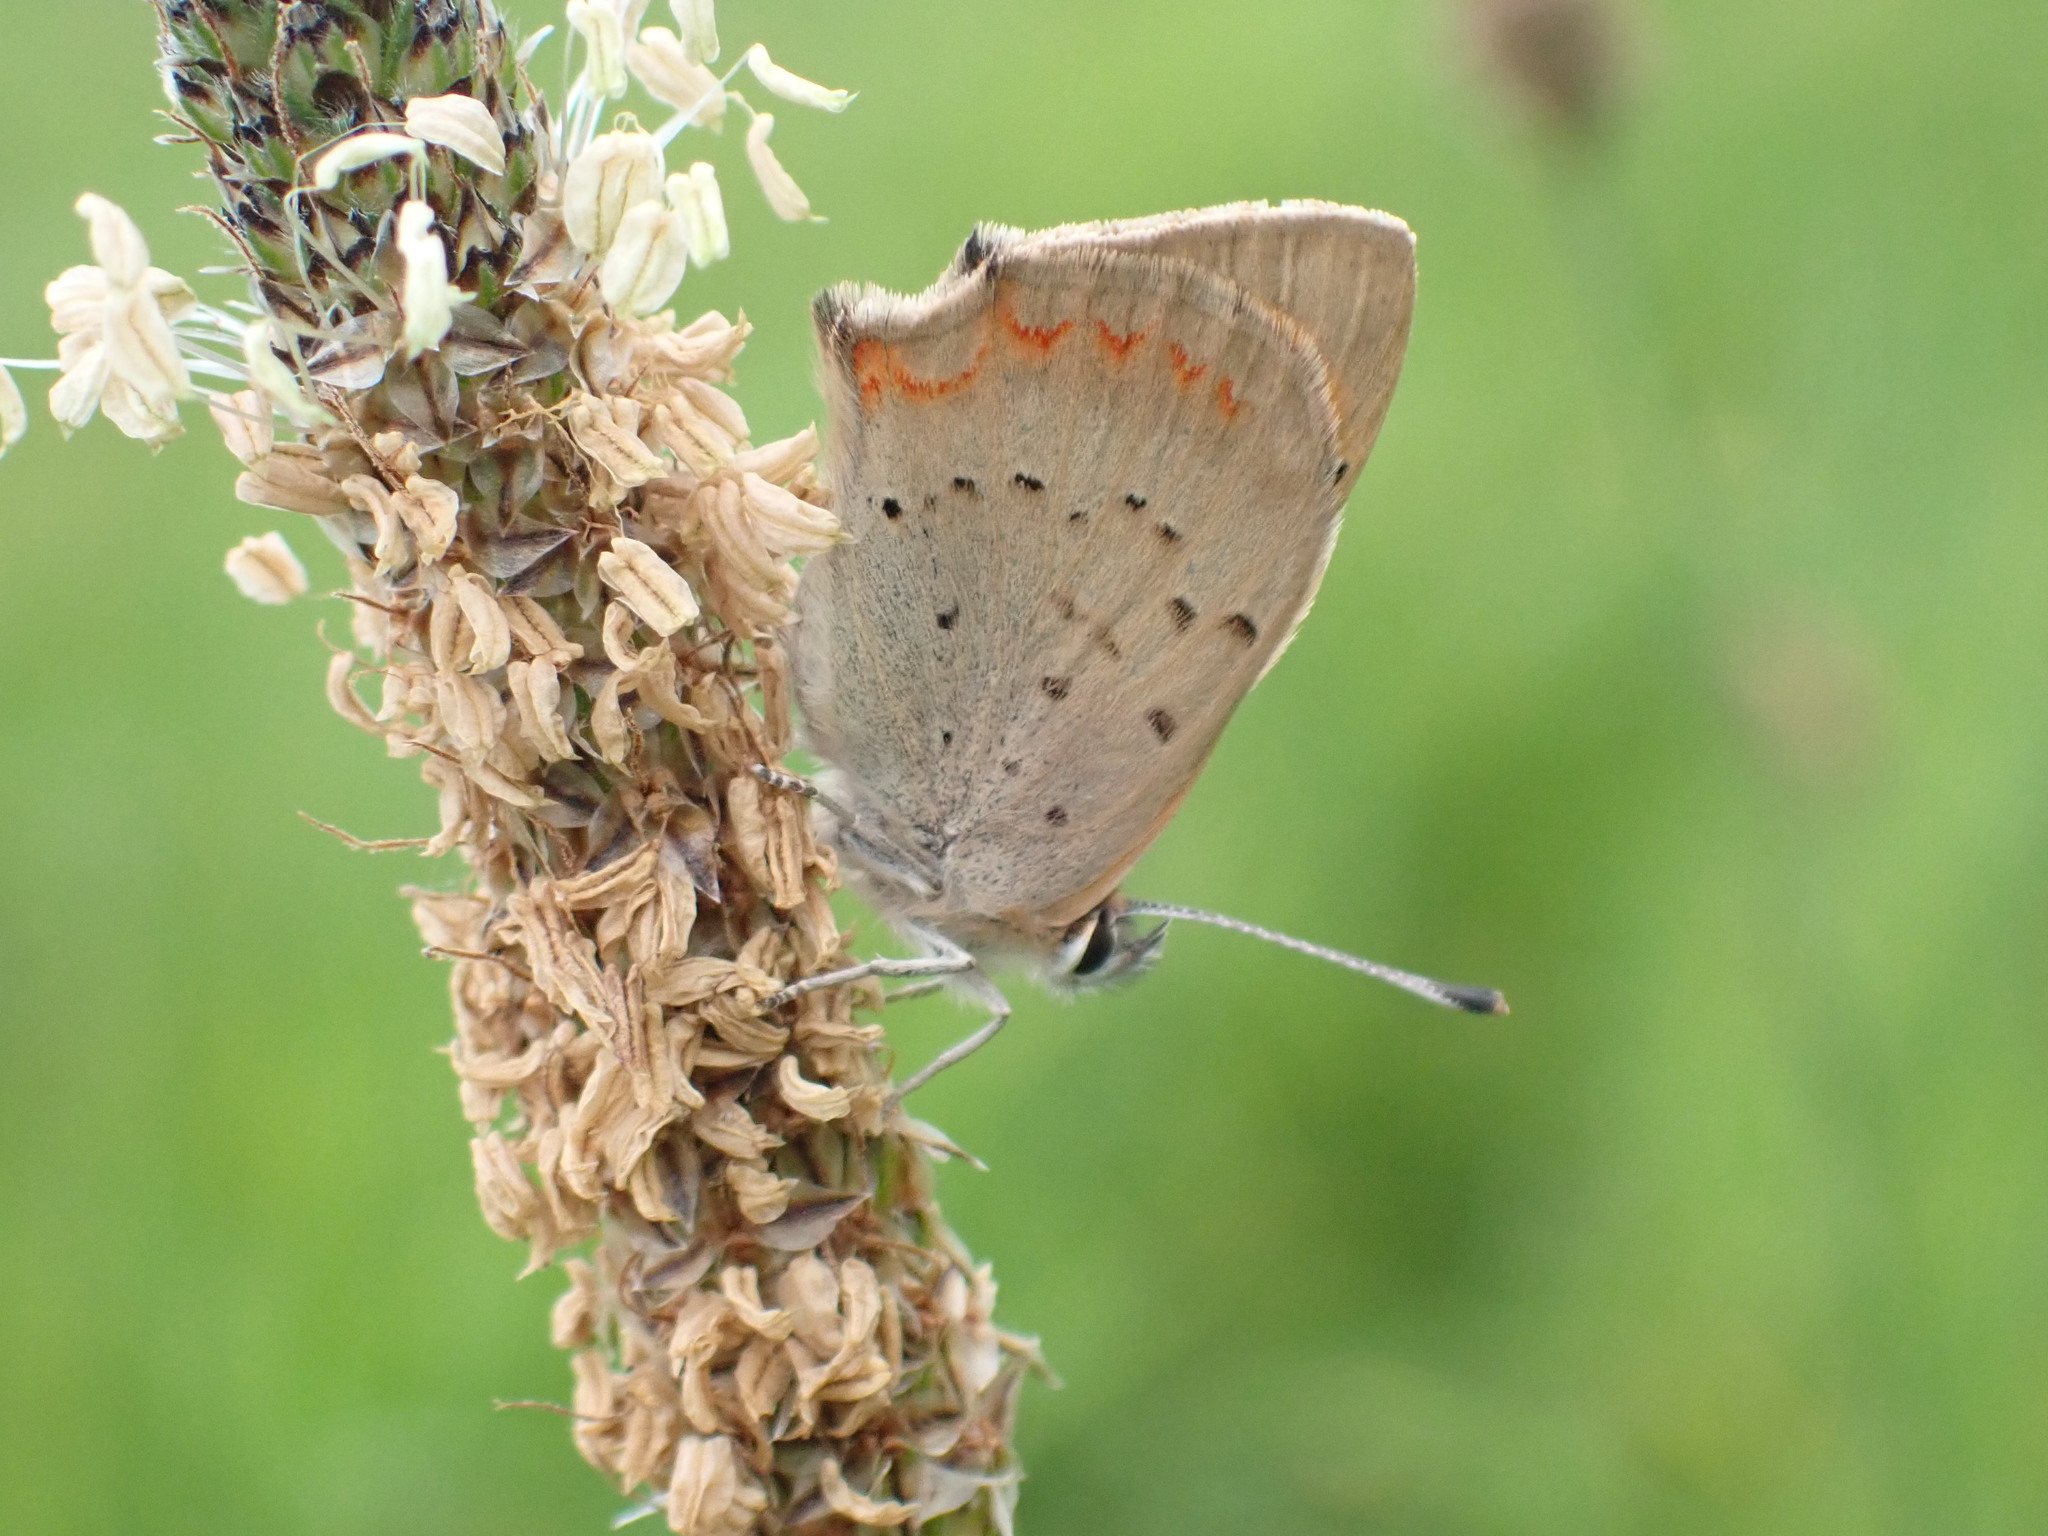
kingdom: Animalia
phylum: Arthropoda
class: Insecta
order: Lepidoptera
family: Lycaenidae
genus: Lycaena
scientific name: Lycaena phlaeas
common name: Small copper
